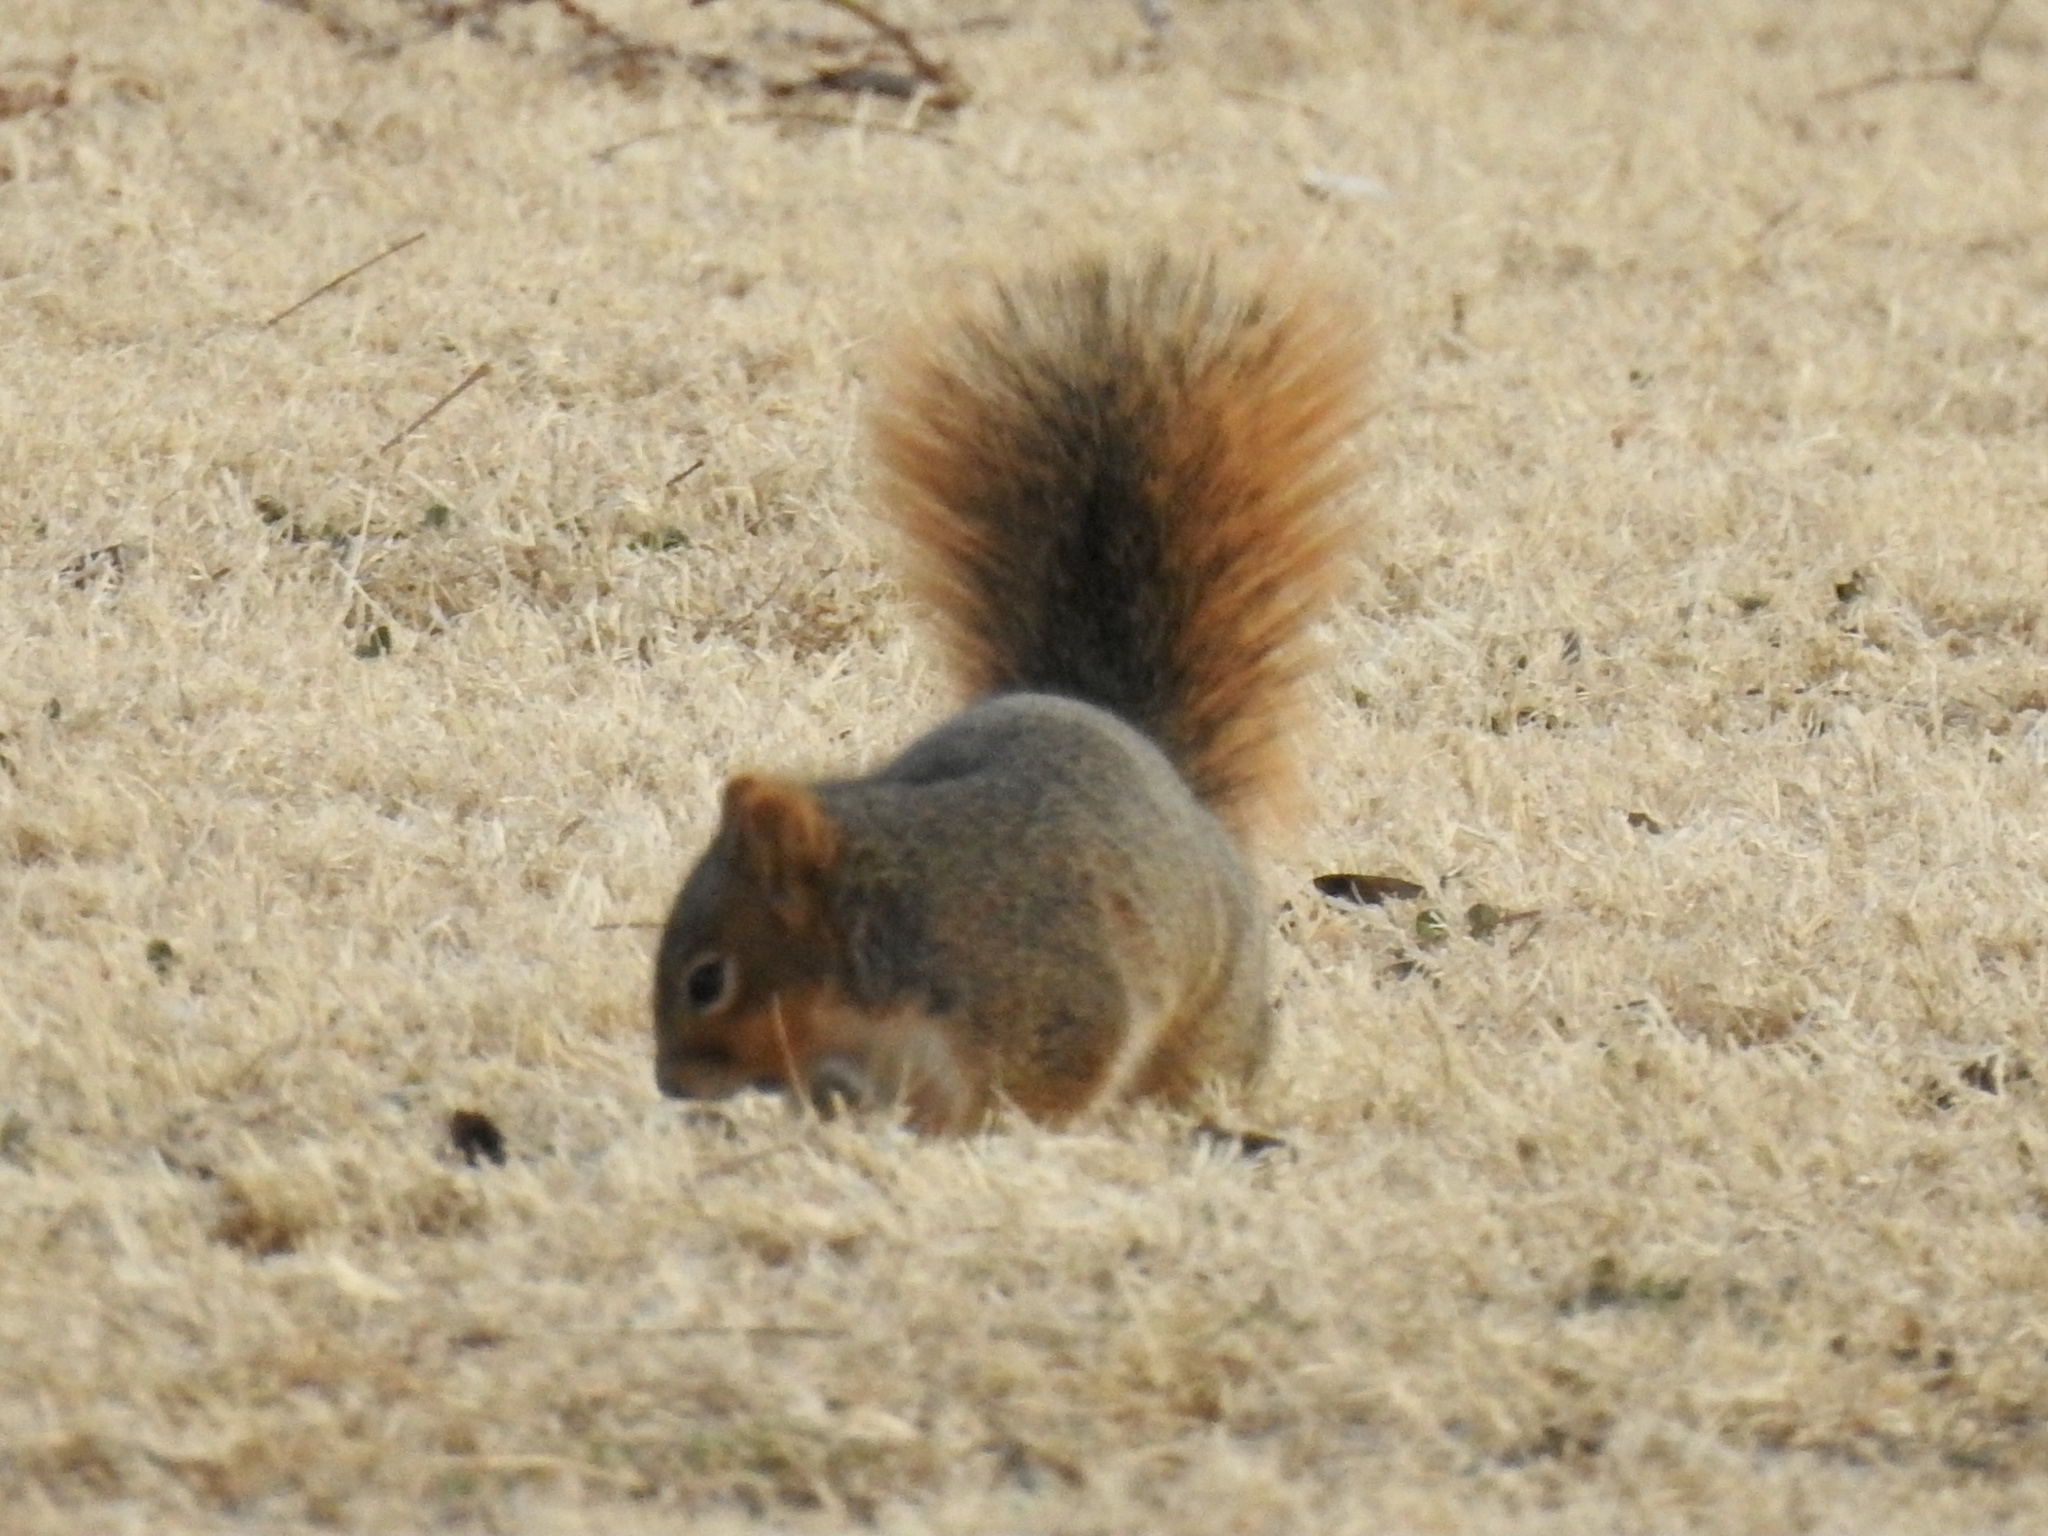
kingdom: Animalia
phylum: Chordata
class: Mammalia
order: Rodentia
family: Sciuridae
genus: Sciurus
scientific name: Sciurus niger
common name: Fox squirrel
